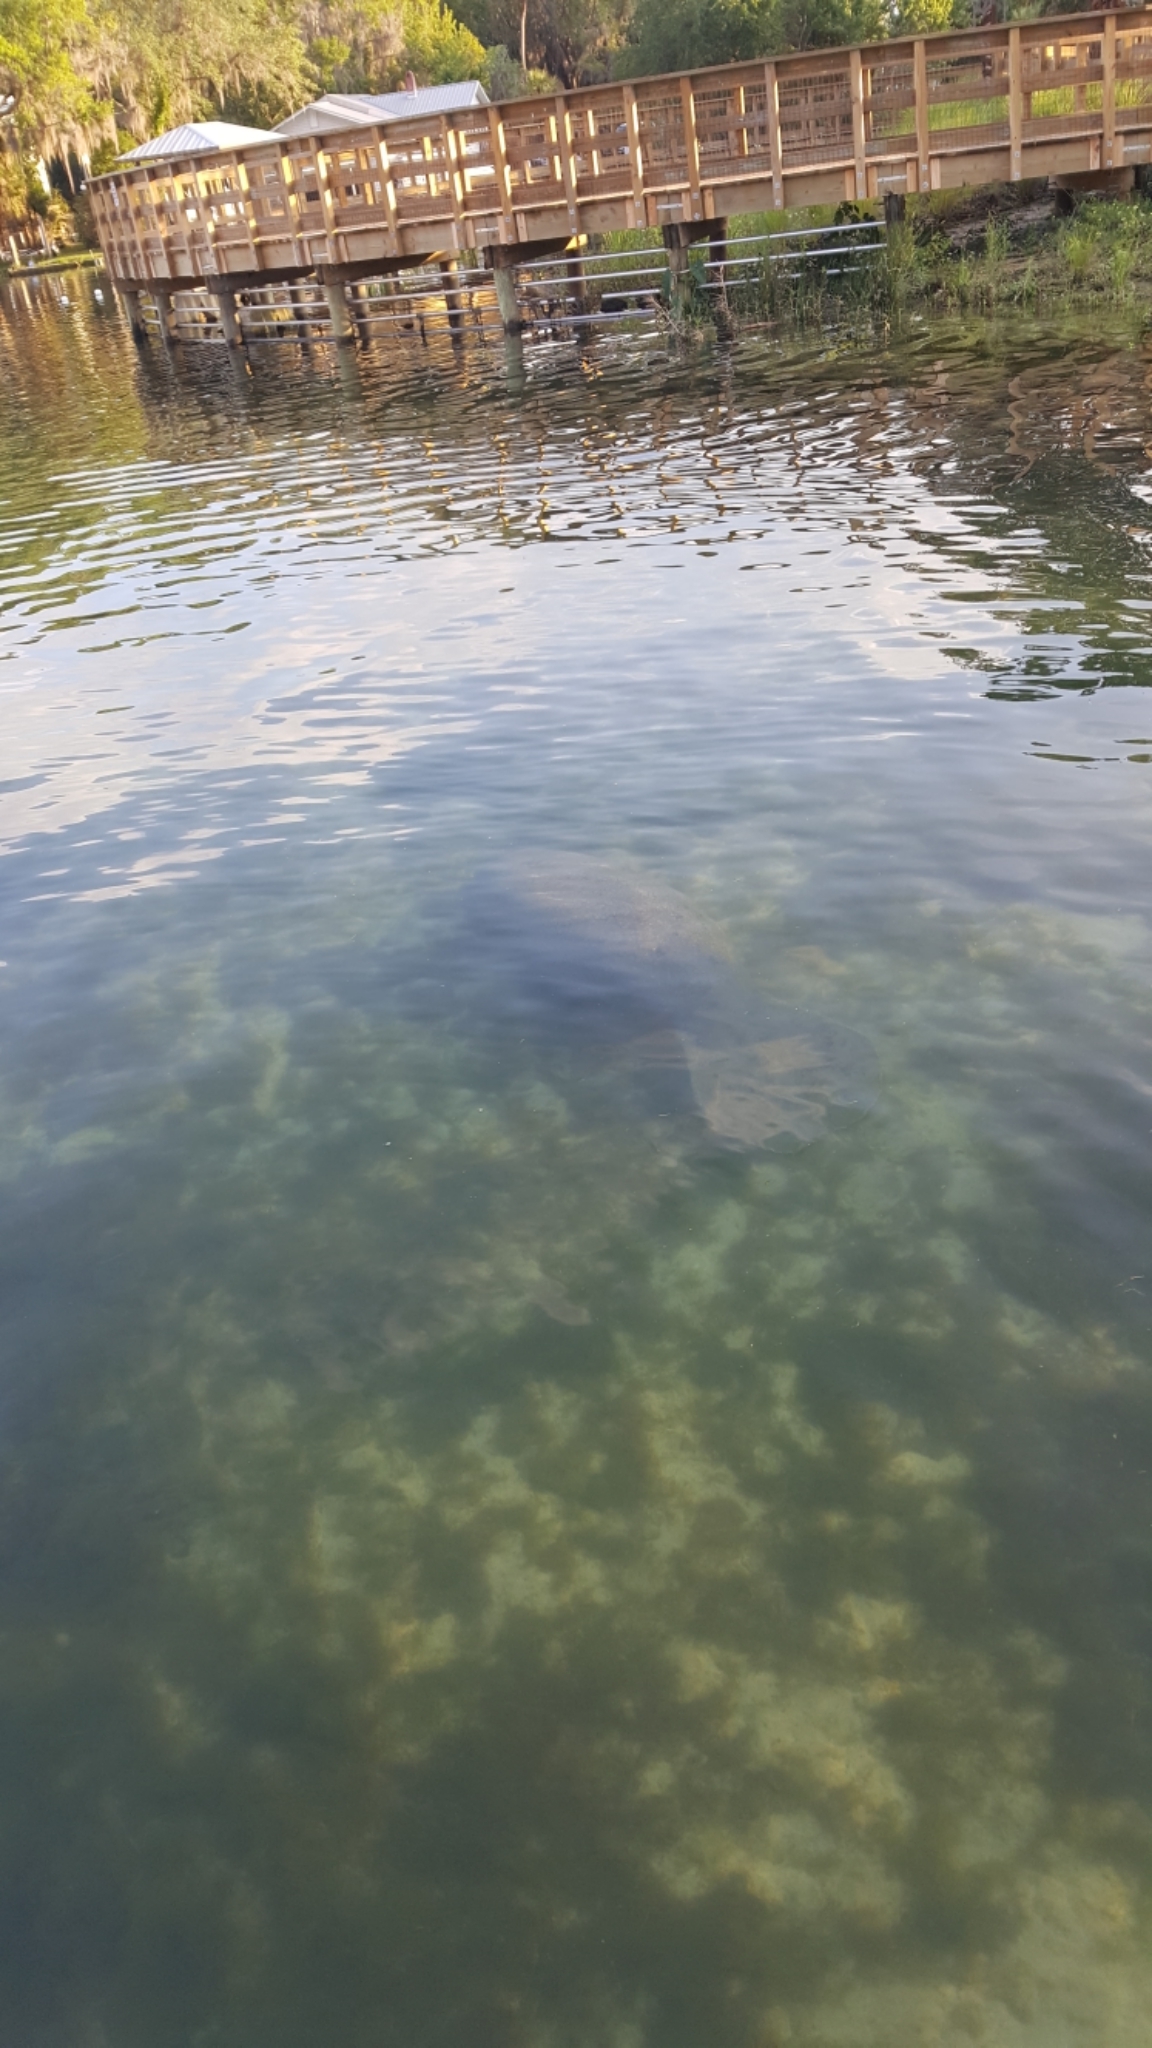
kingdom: Animalia
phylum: Chordata
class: Mammalia
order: Sirenia
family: Trichechidae
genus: Trichechus
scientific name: Trichechus manatus
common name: West indian manatee
